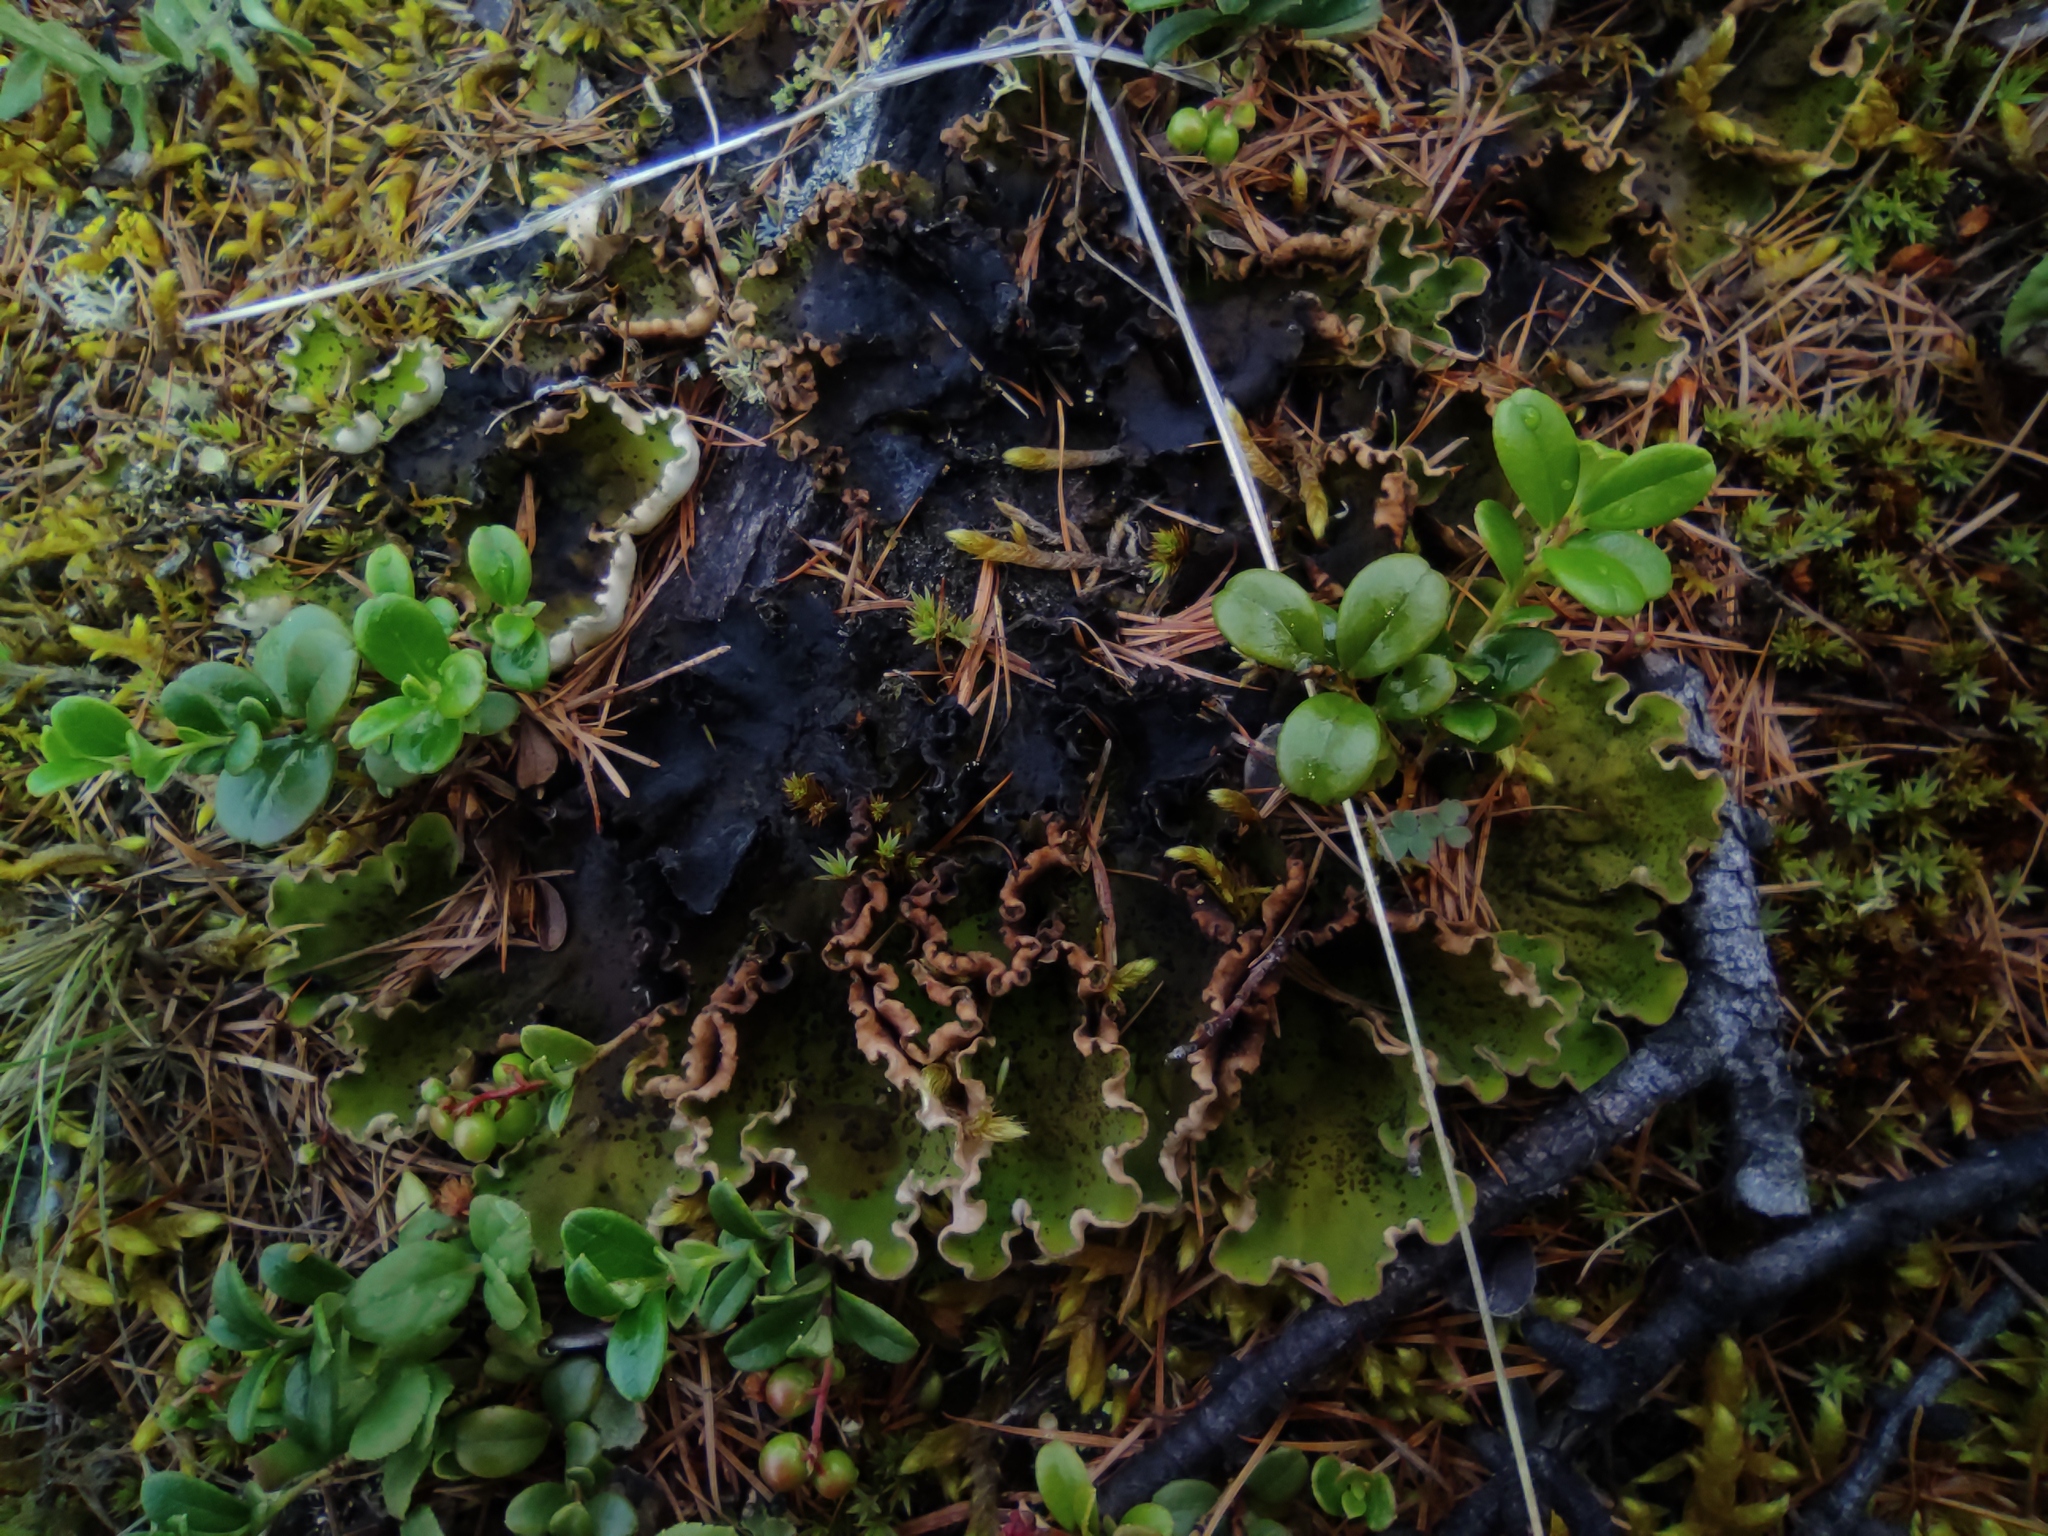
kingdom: Plantae
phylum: Tracheophyta
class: Magnoliopsida
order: Ericales
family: Ericaceae
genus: Vaccinium
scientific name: Vaccinium vitis-idaea
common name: Cowberry
